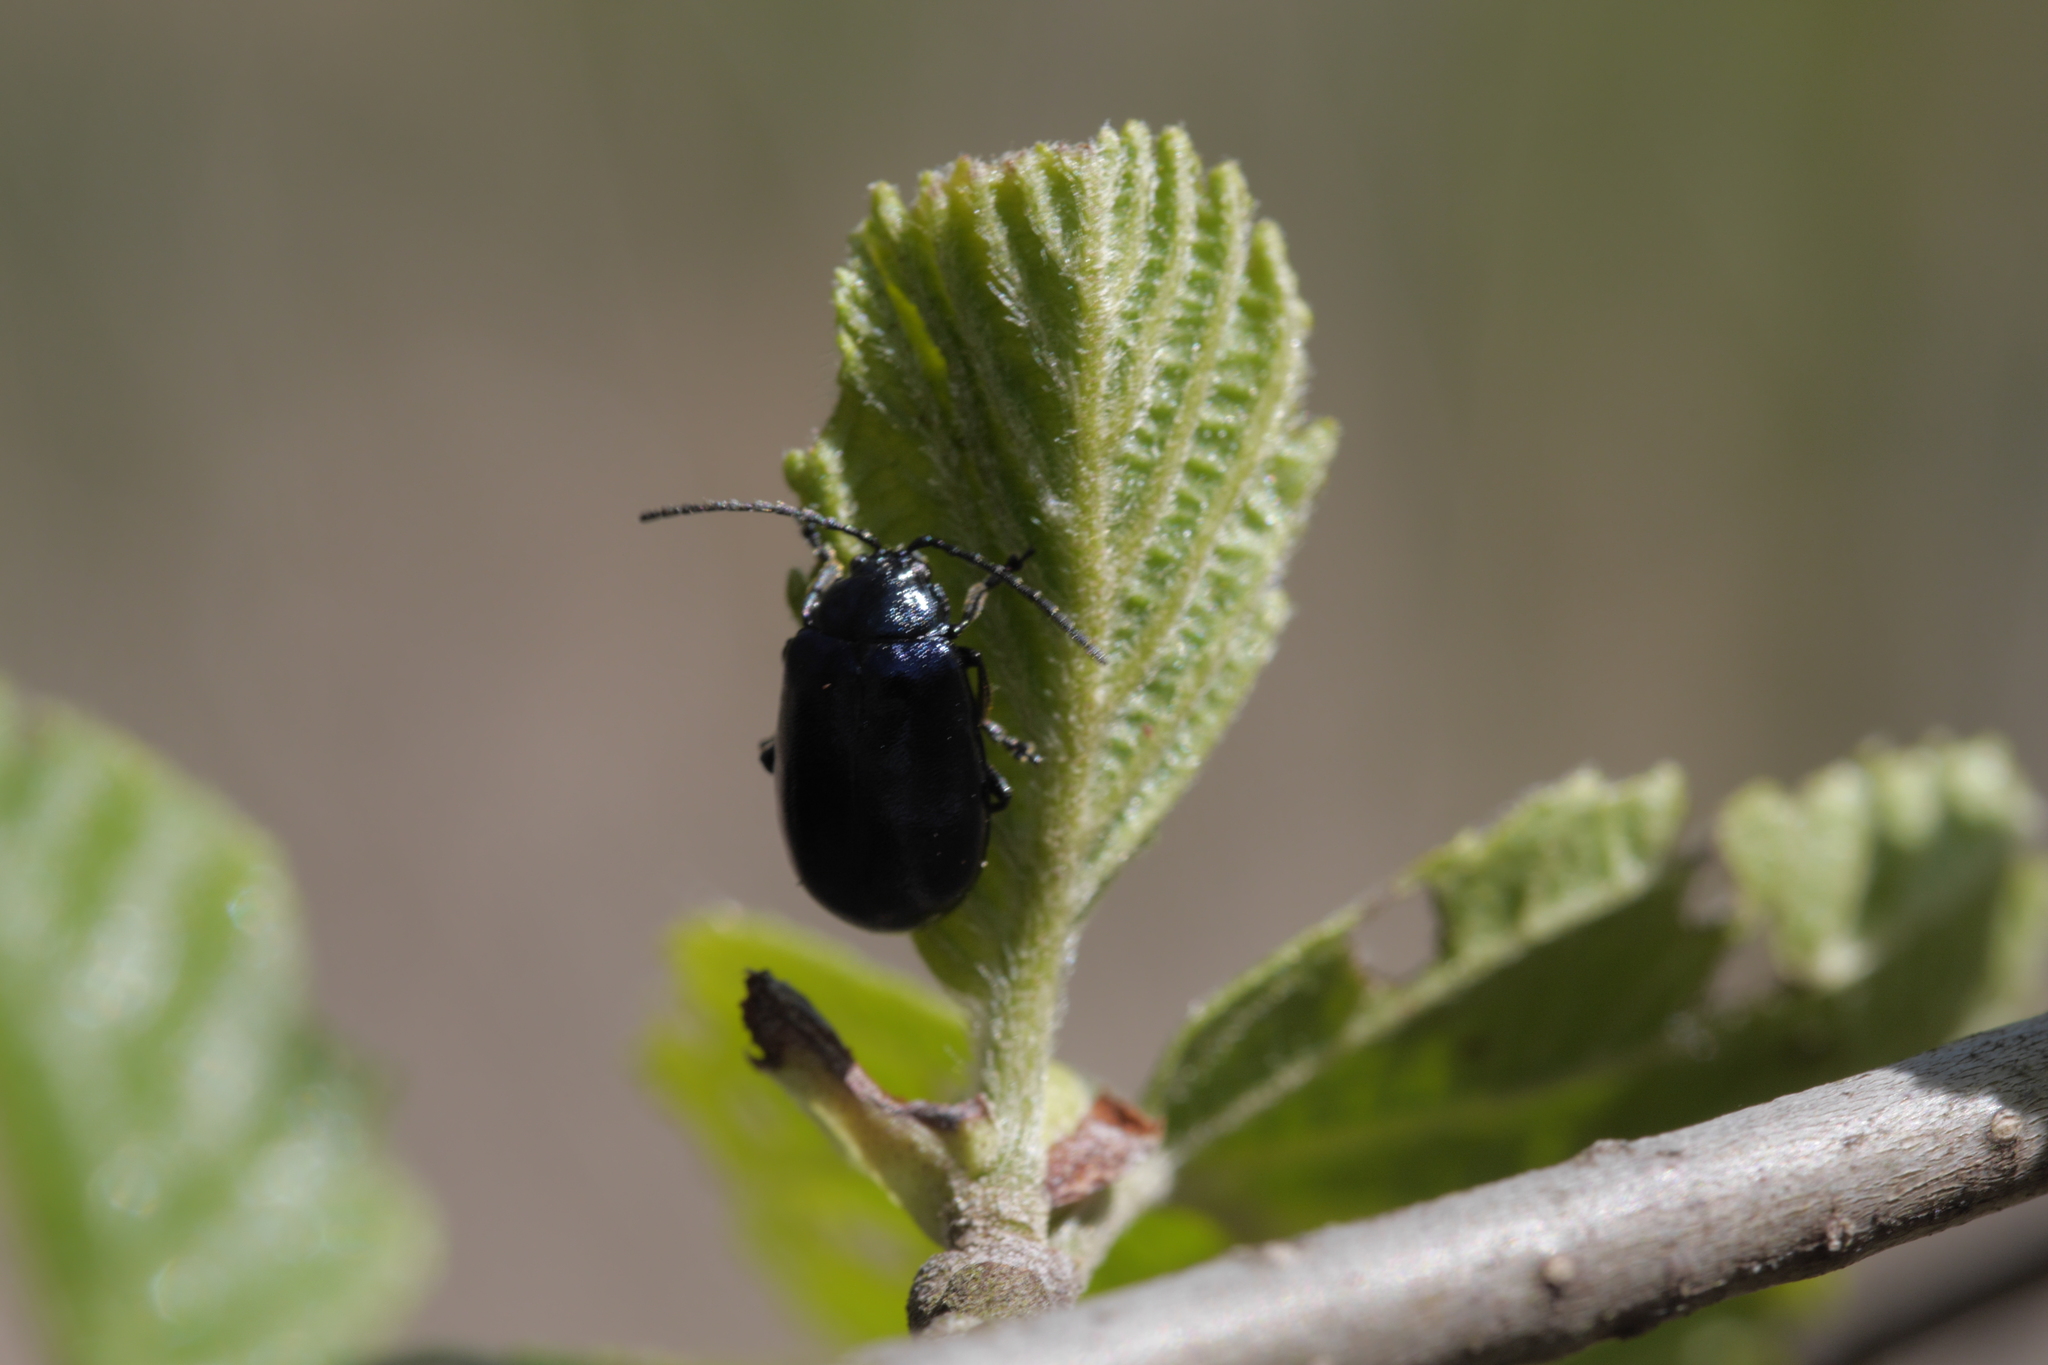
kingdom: Animalia
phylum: Arthropoda
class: Insecta
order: Coleoptera
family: Chrysomelidae
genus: Agelastica
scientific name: Agelastica alni
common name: Alder leaf beetle
